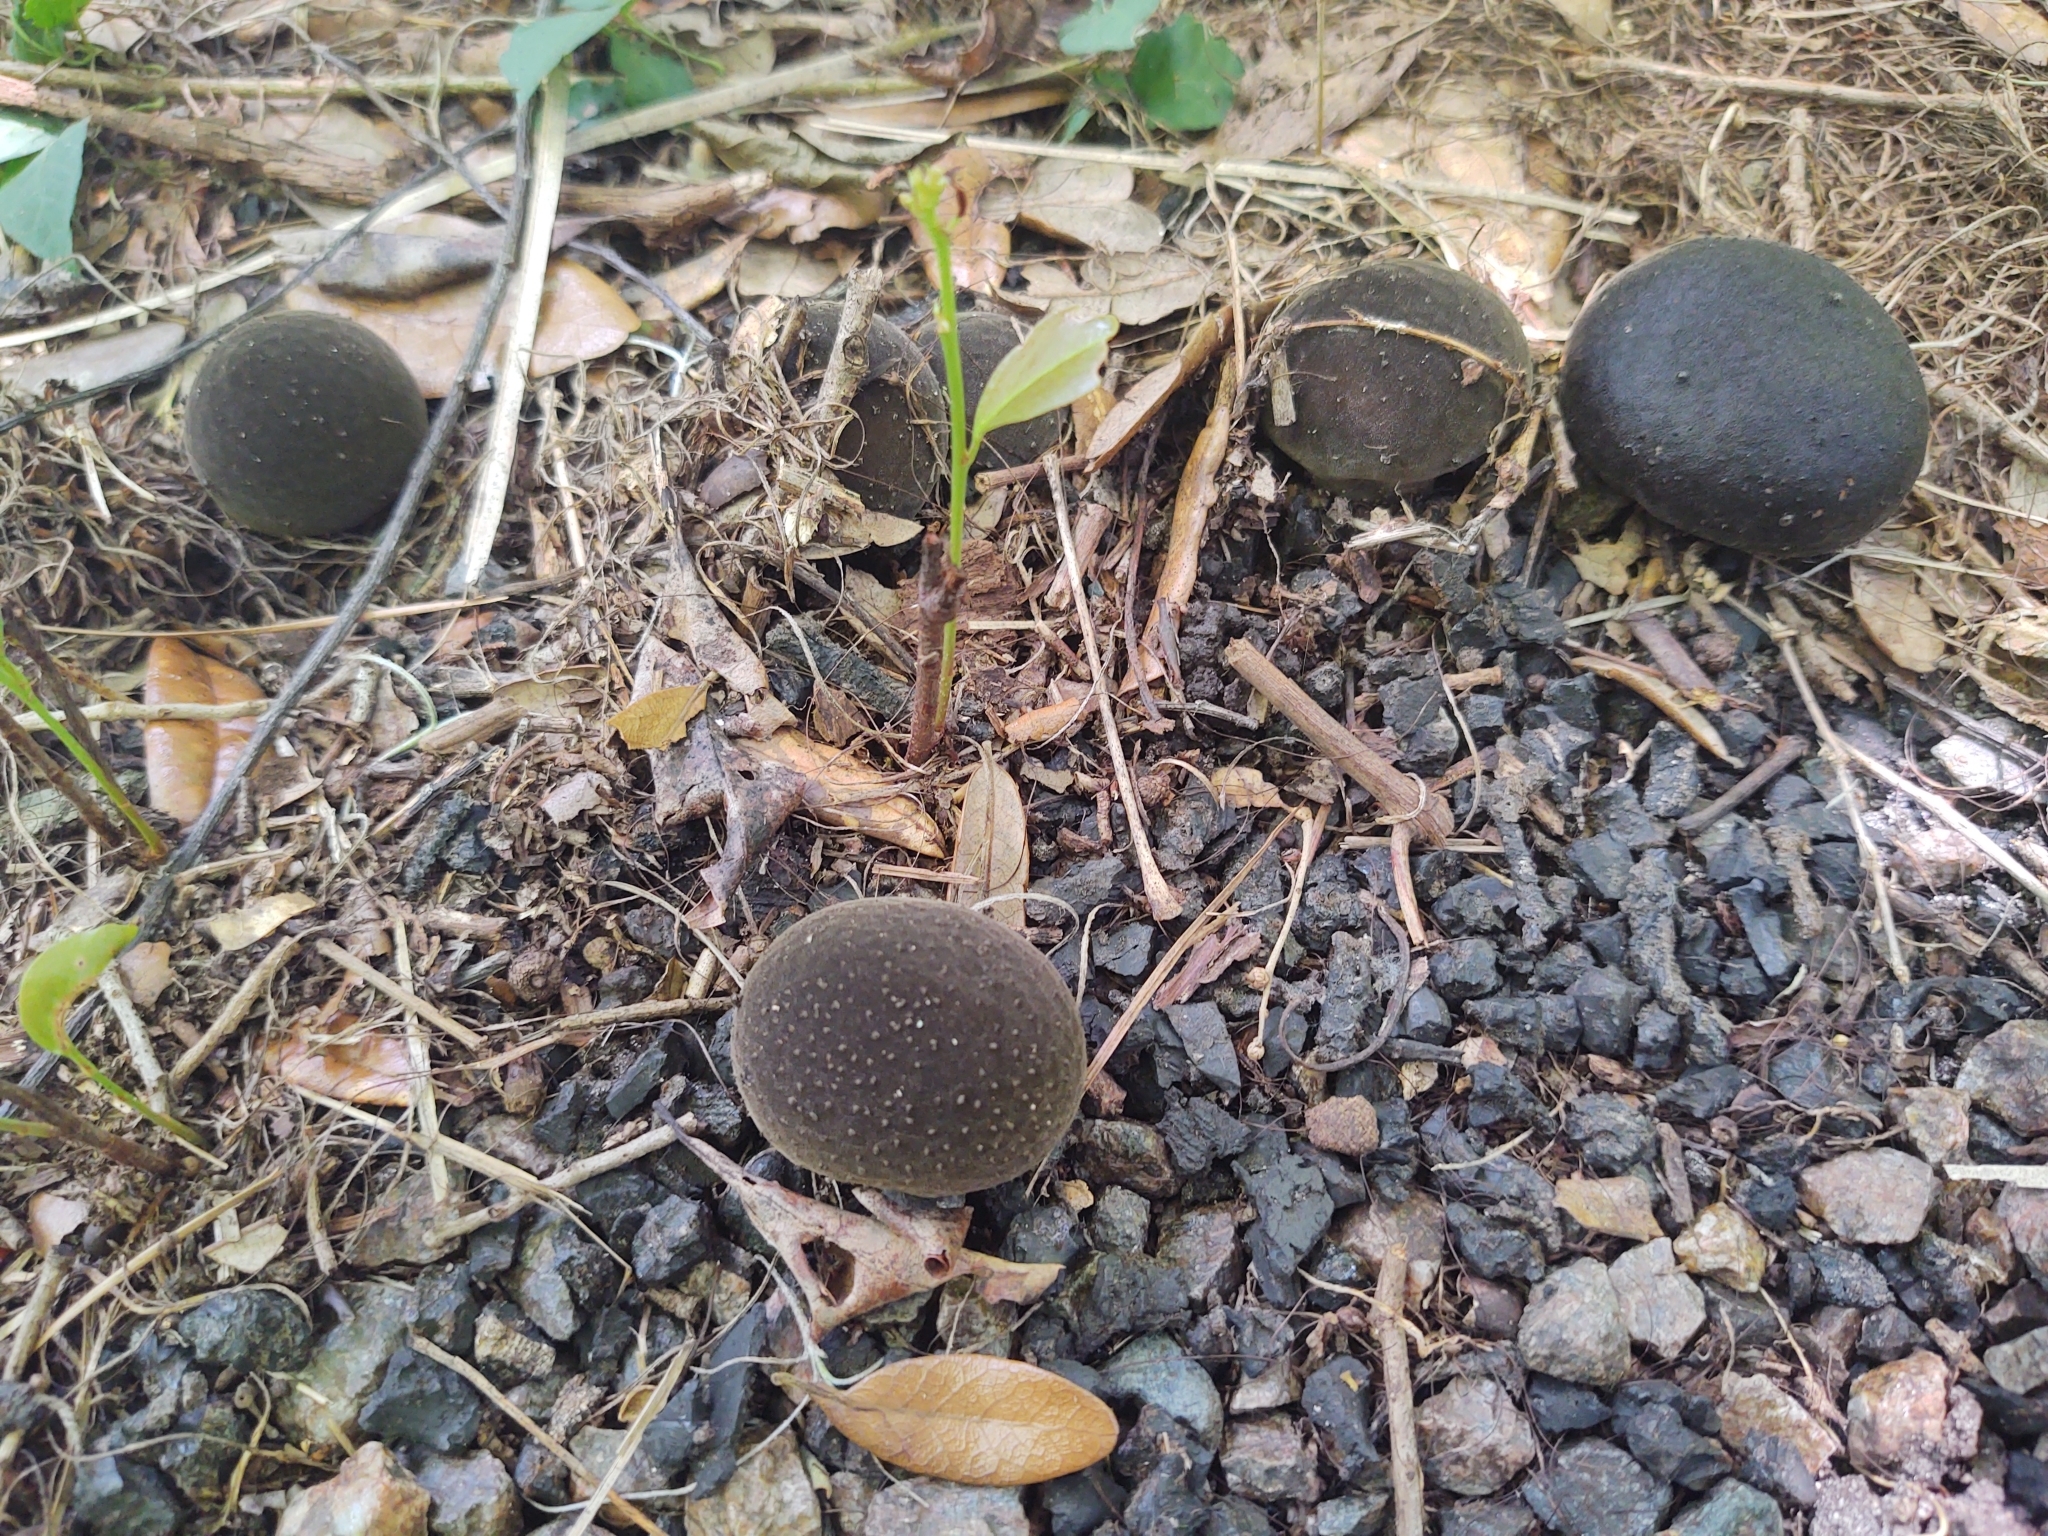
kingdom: Fungi
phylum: Basidiomycota
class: Agaricomycetes
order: Agaricales
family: Lycoperdaceae
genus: Lycoperdon
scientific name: Lycoperdon umbrinum
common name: Umber-brown puffball
